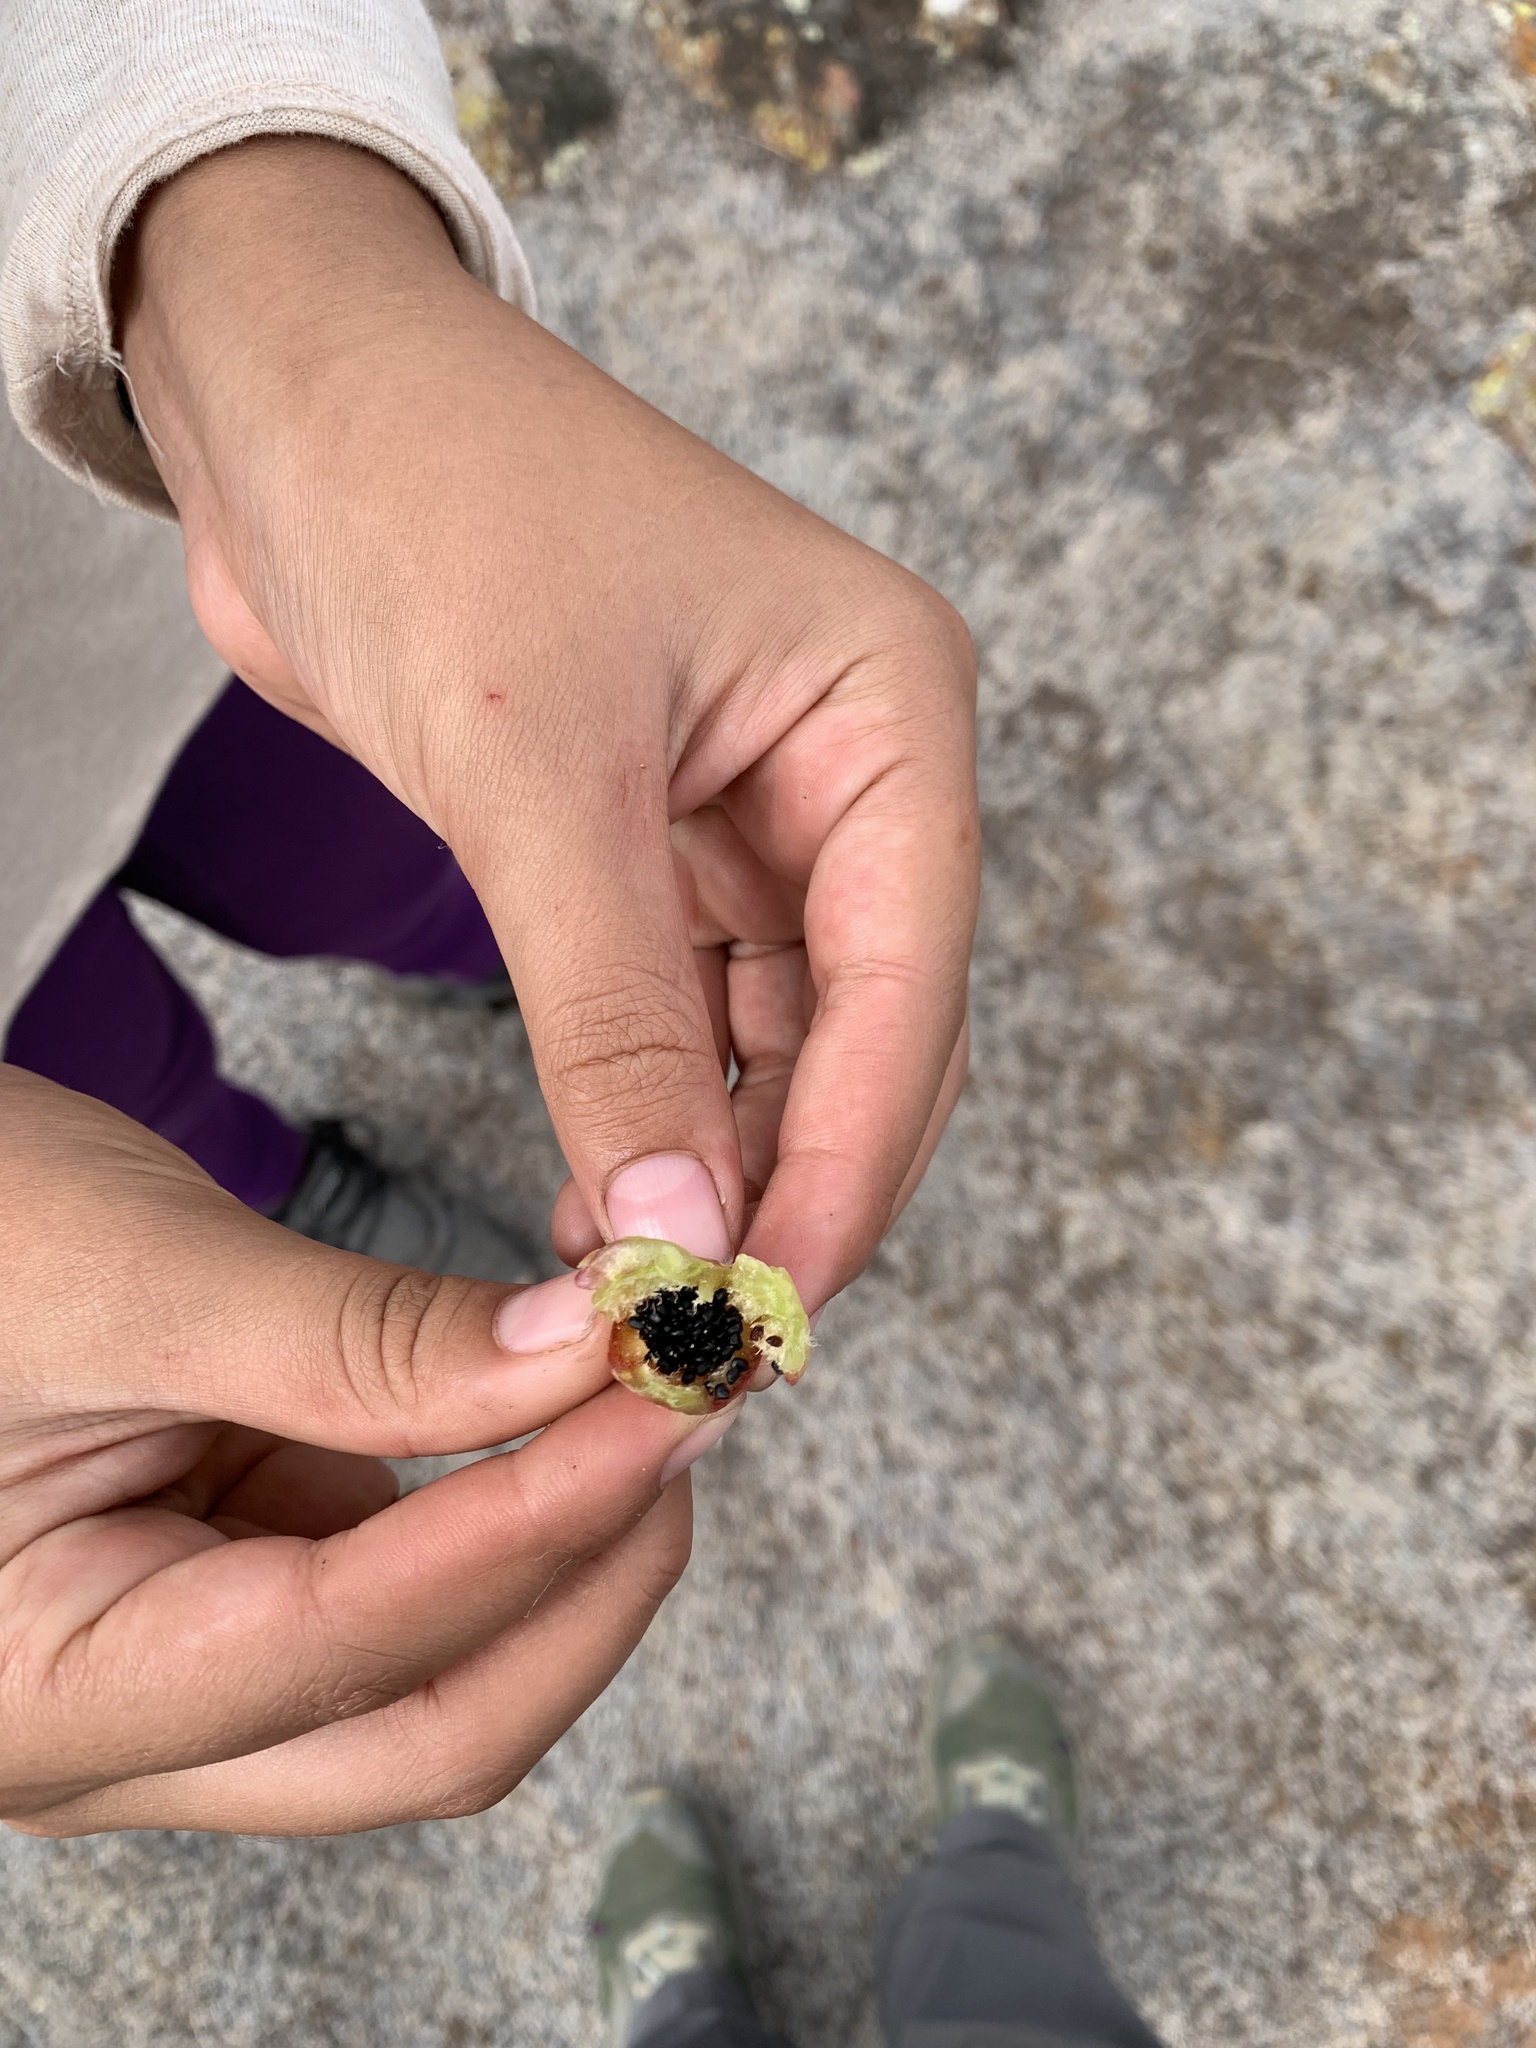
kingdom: Plantae
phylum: Tracheophyta
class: Magnoliopsida
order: Caryophyllales
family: Cactaceae
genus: Ferocactus
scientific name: Ferocactus viridescens
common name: San diego barrel cactus
